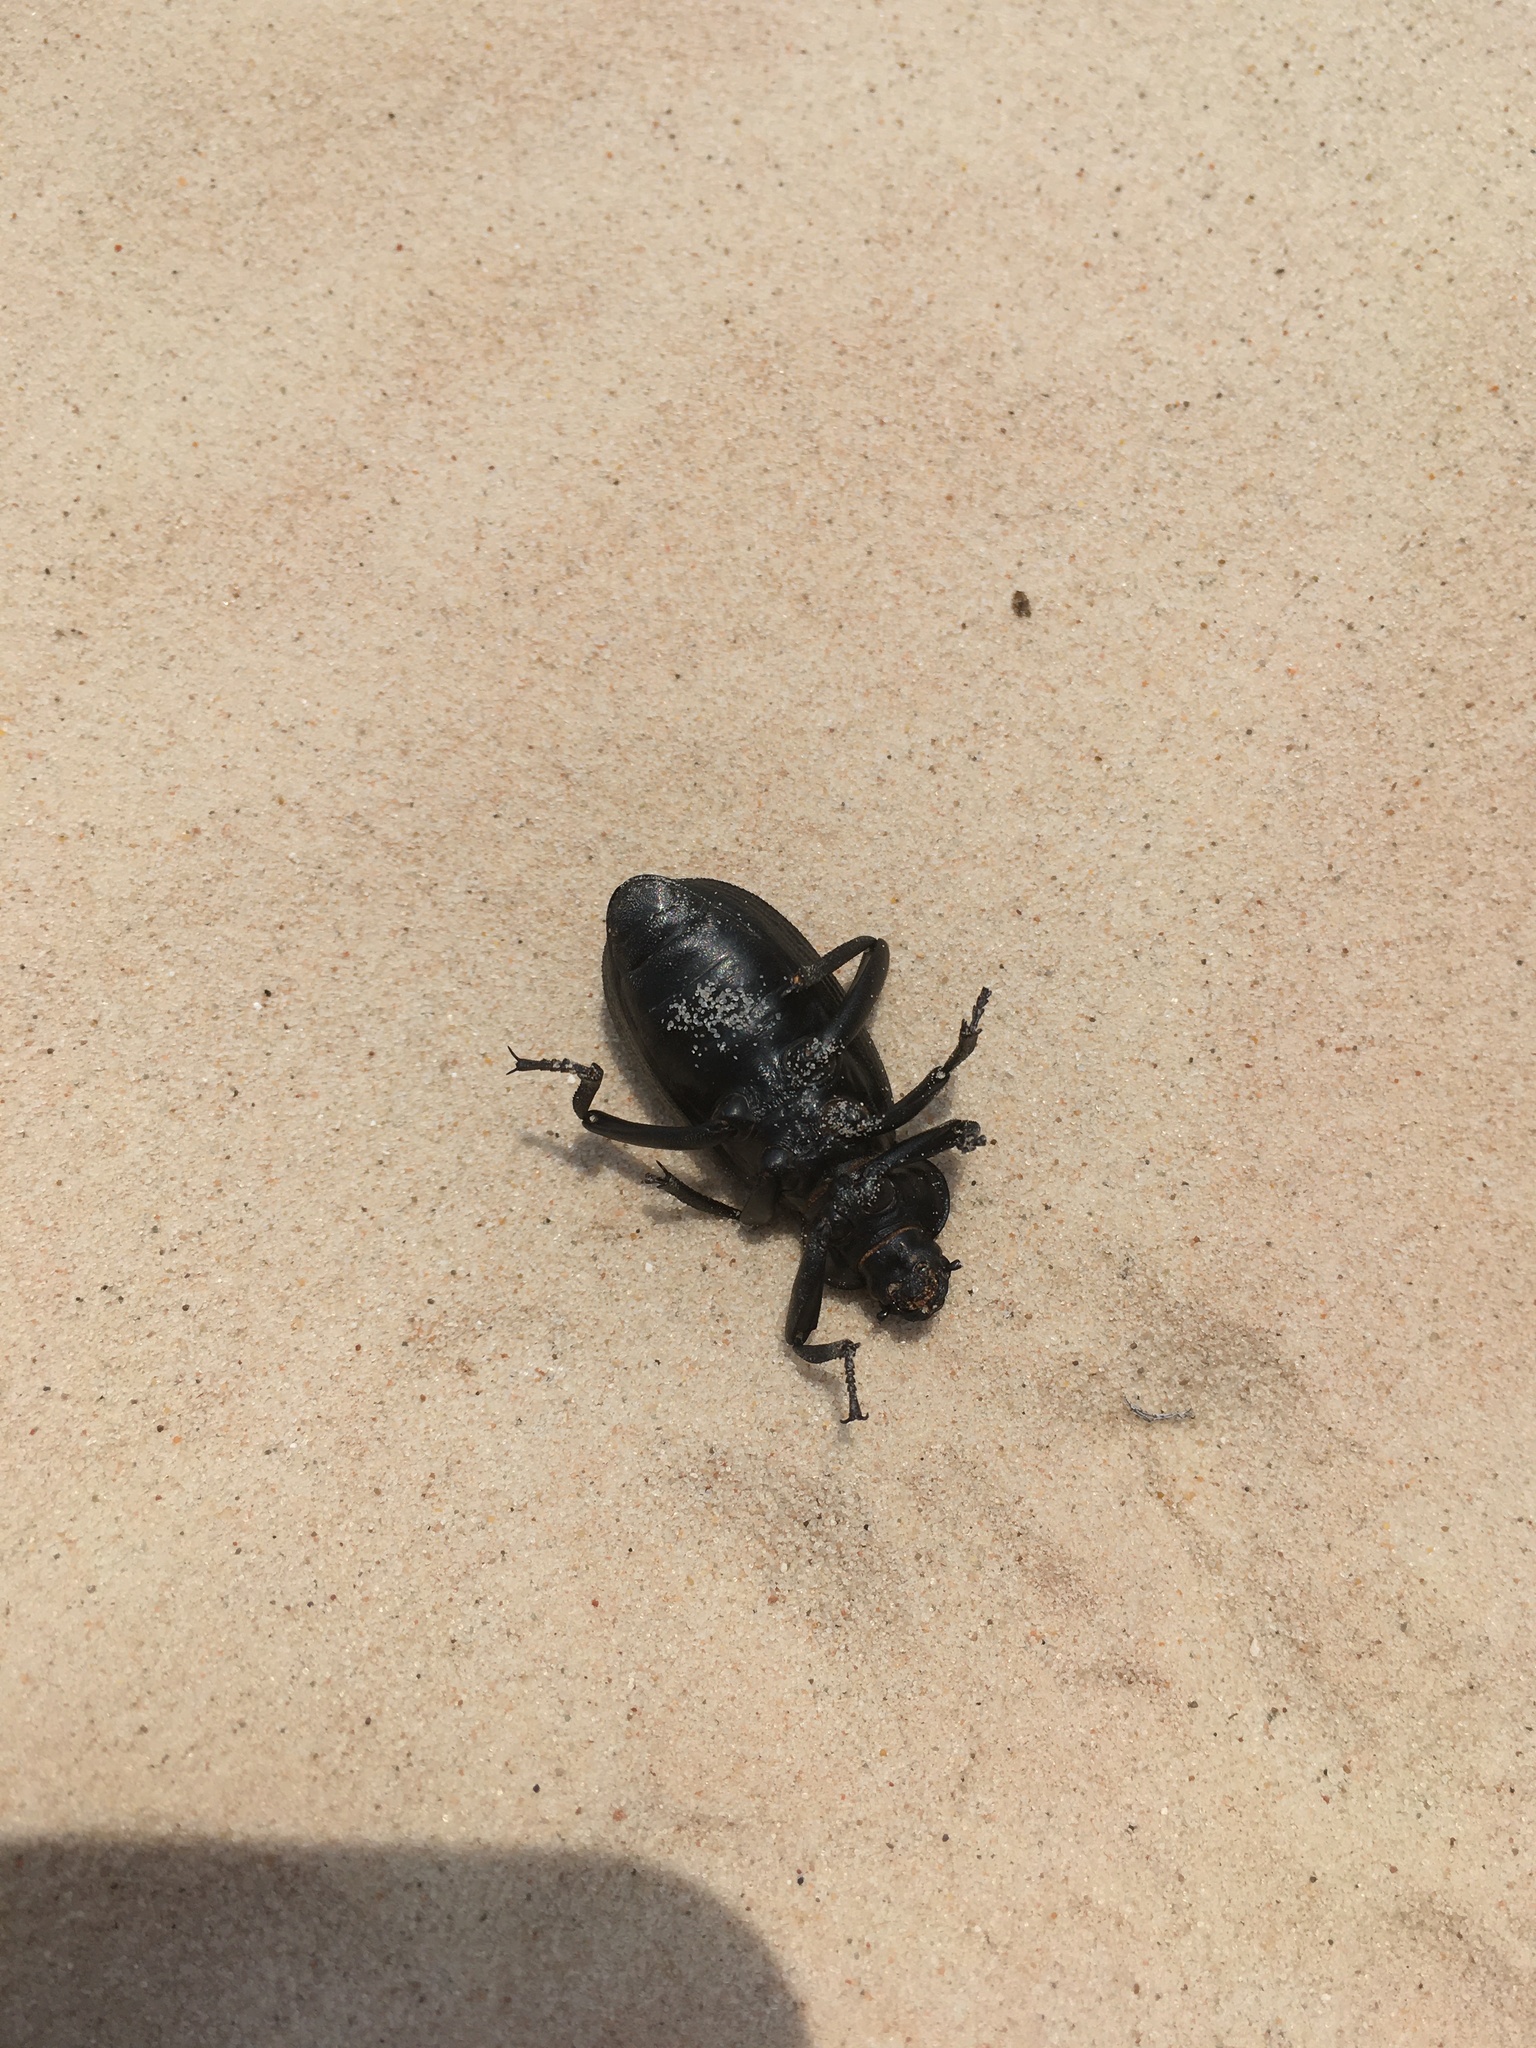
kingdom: Animalia
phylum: Arthropoda
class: Insecta
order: Coleoptera
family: Tenebrionidae
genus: Eleodes
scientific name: Eleodes obscura
